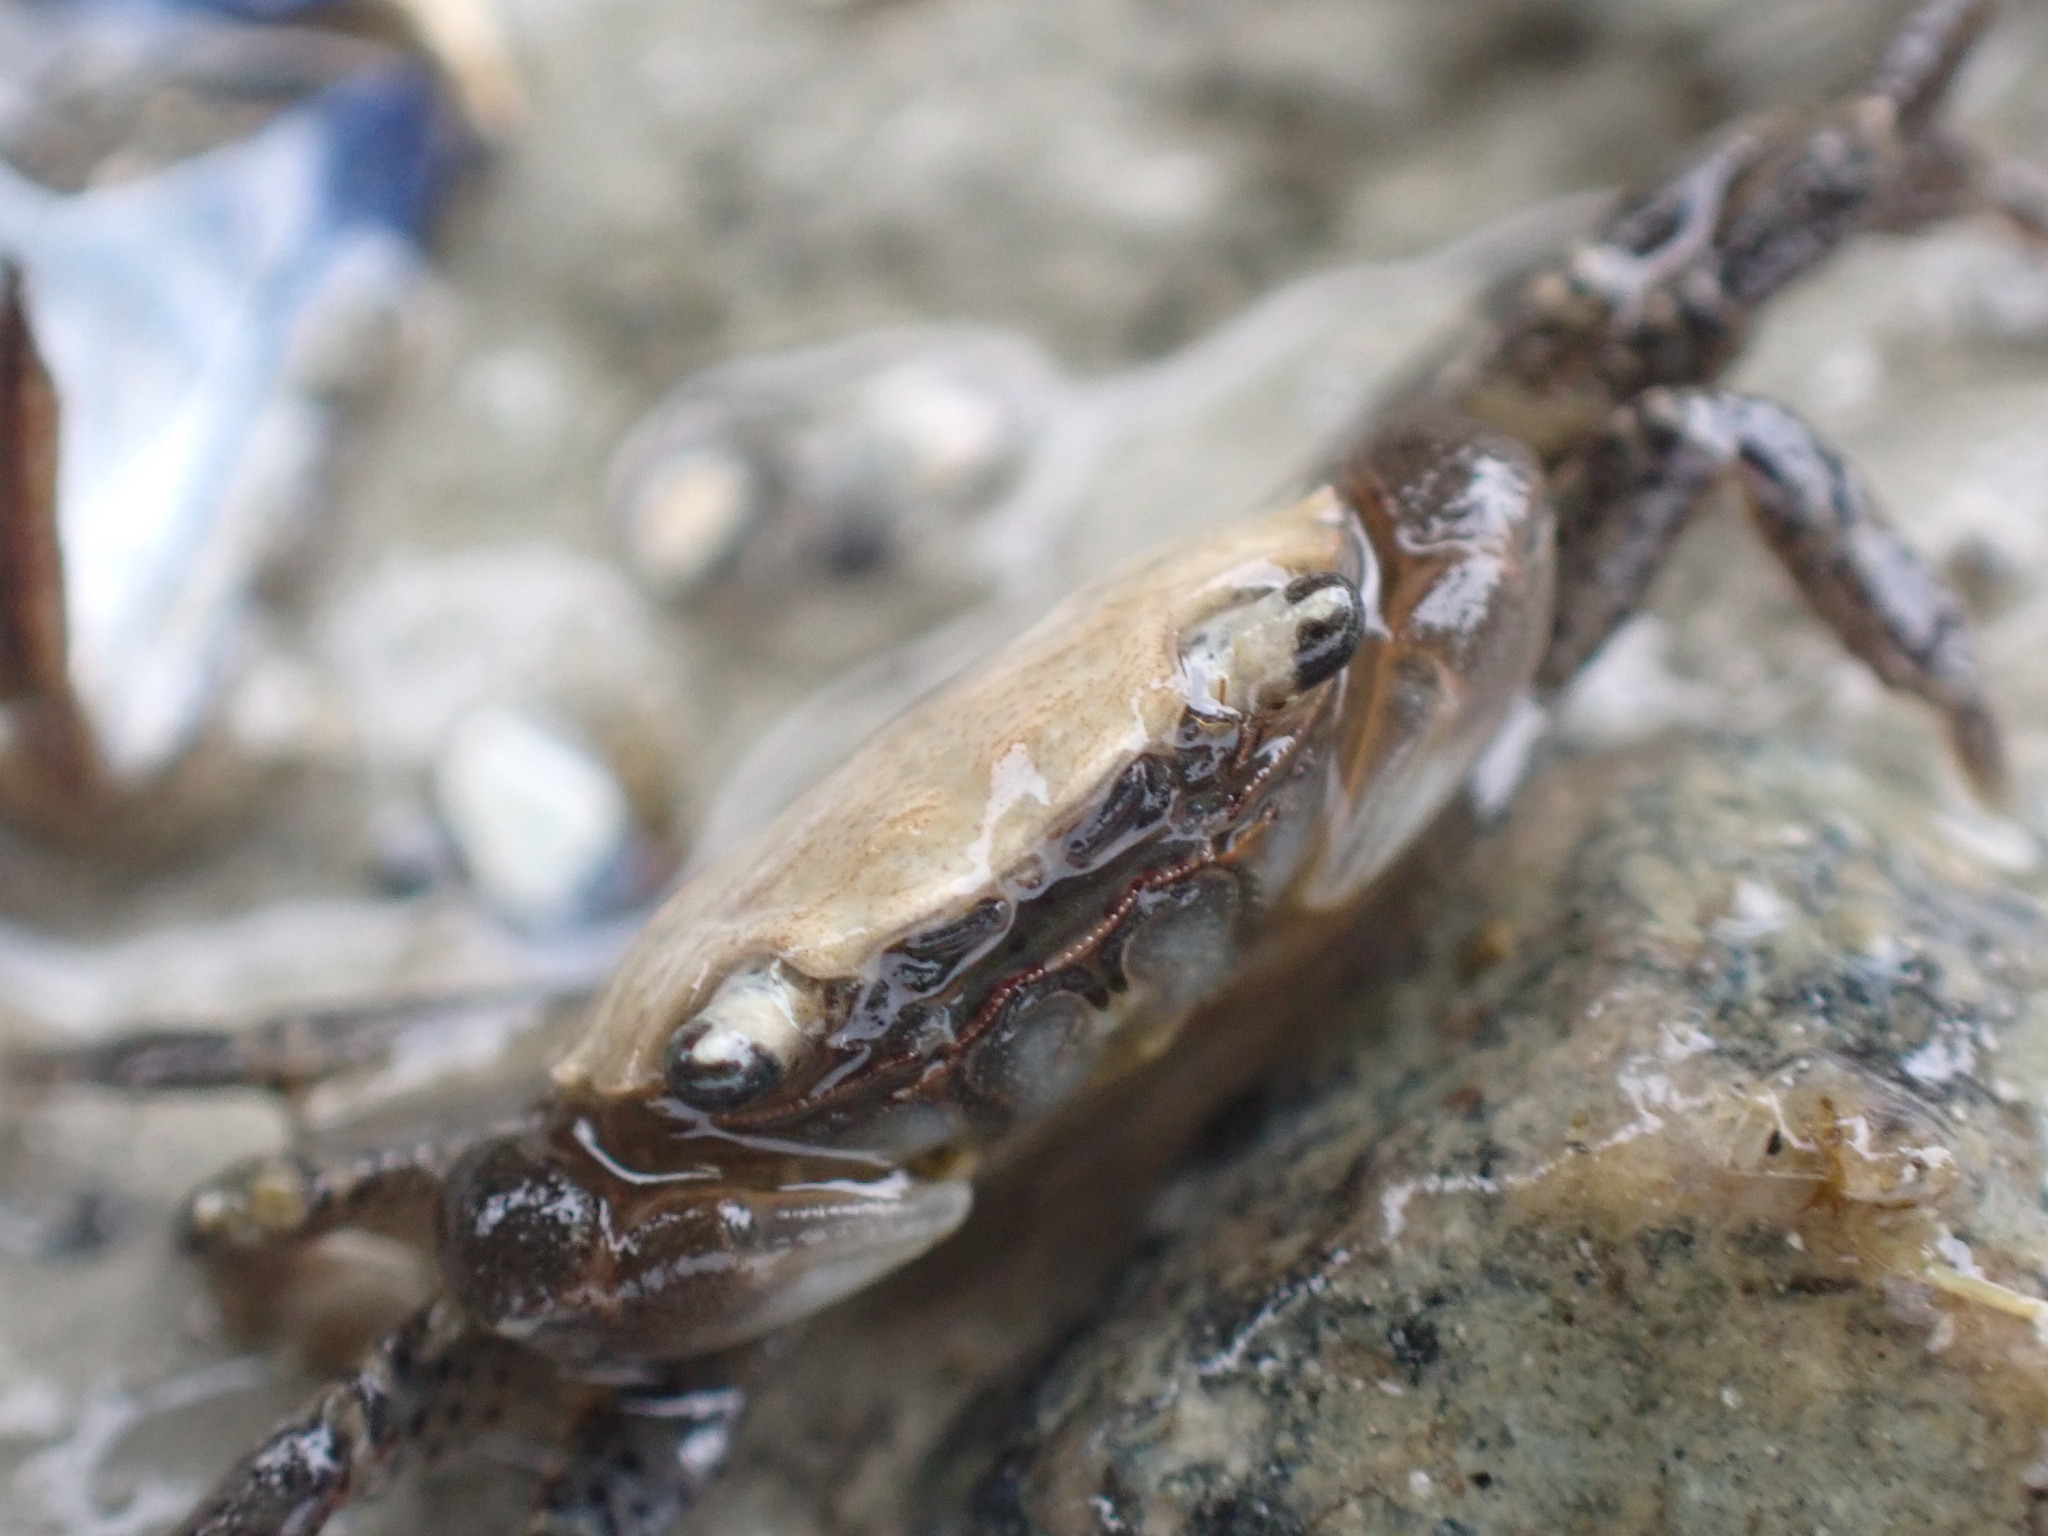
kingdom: Animalia
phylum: Arthropoda
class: Malacostraca
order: Decapoda
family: Varunidae
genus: Hemigrapsus
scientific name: Hemigrapsus oregonensis
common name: Yellow shore crab
